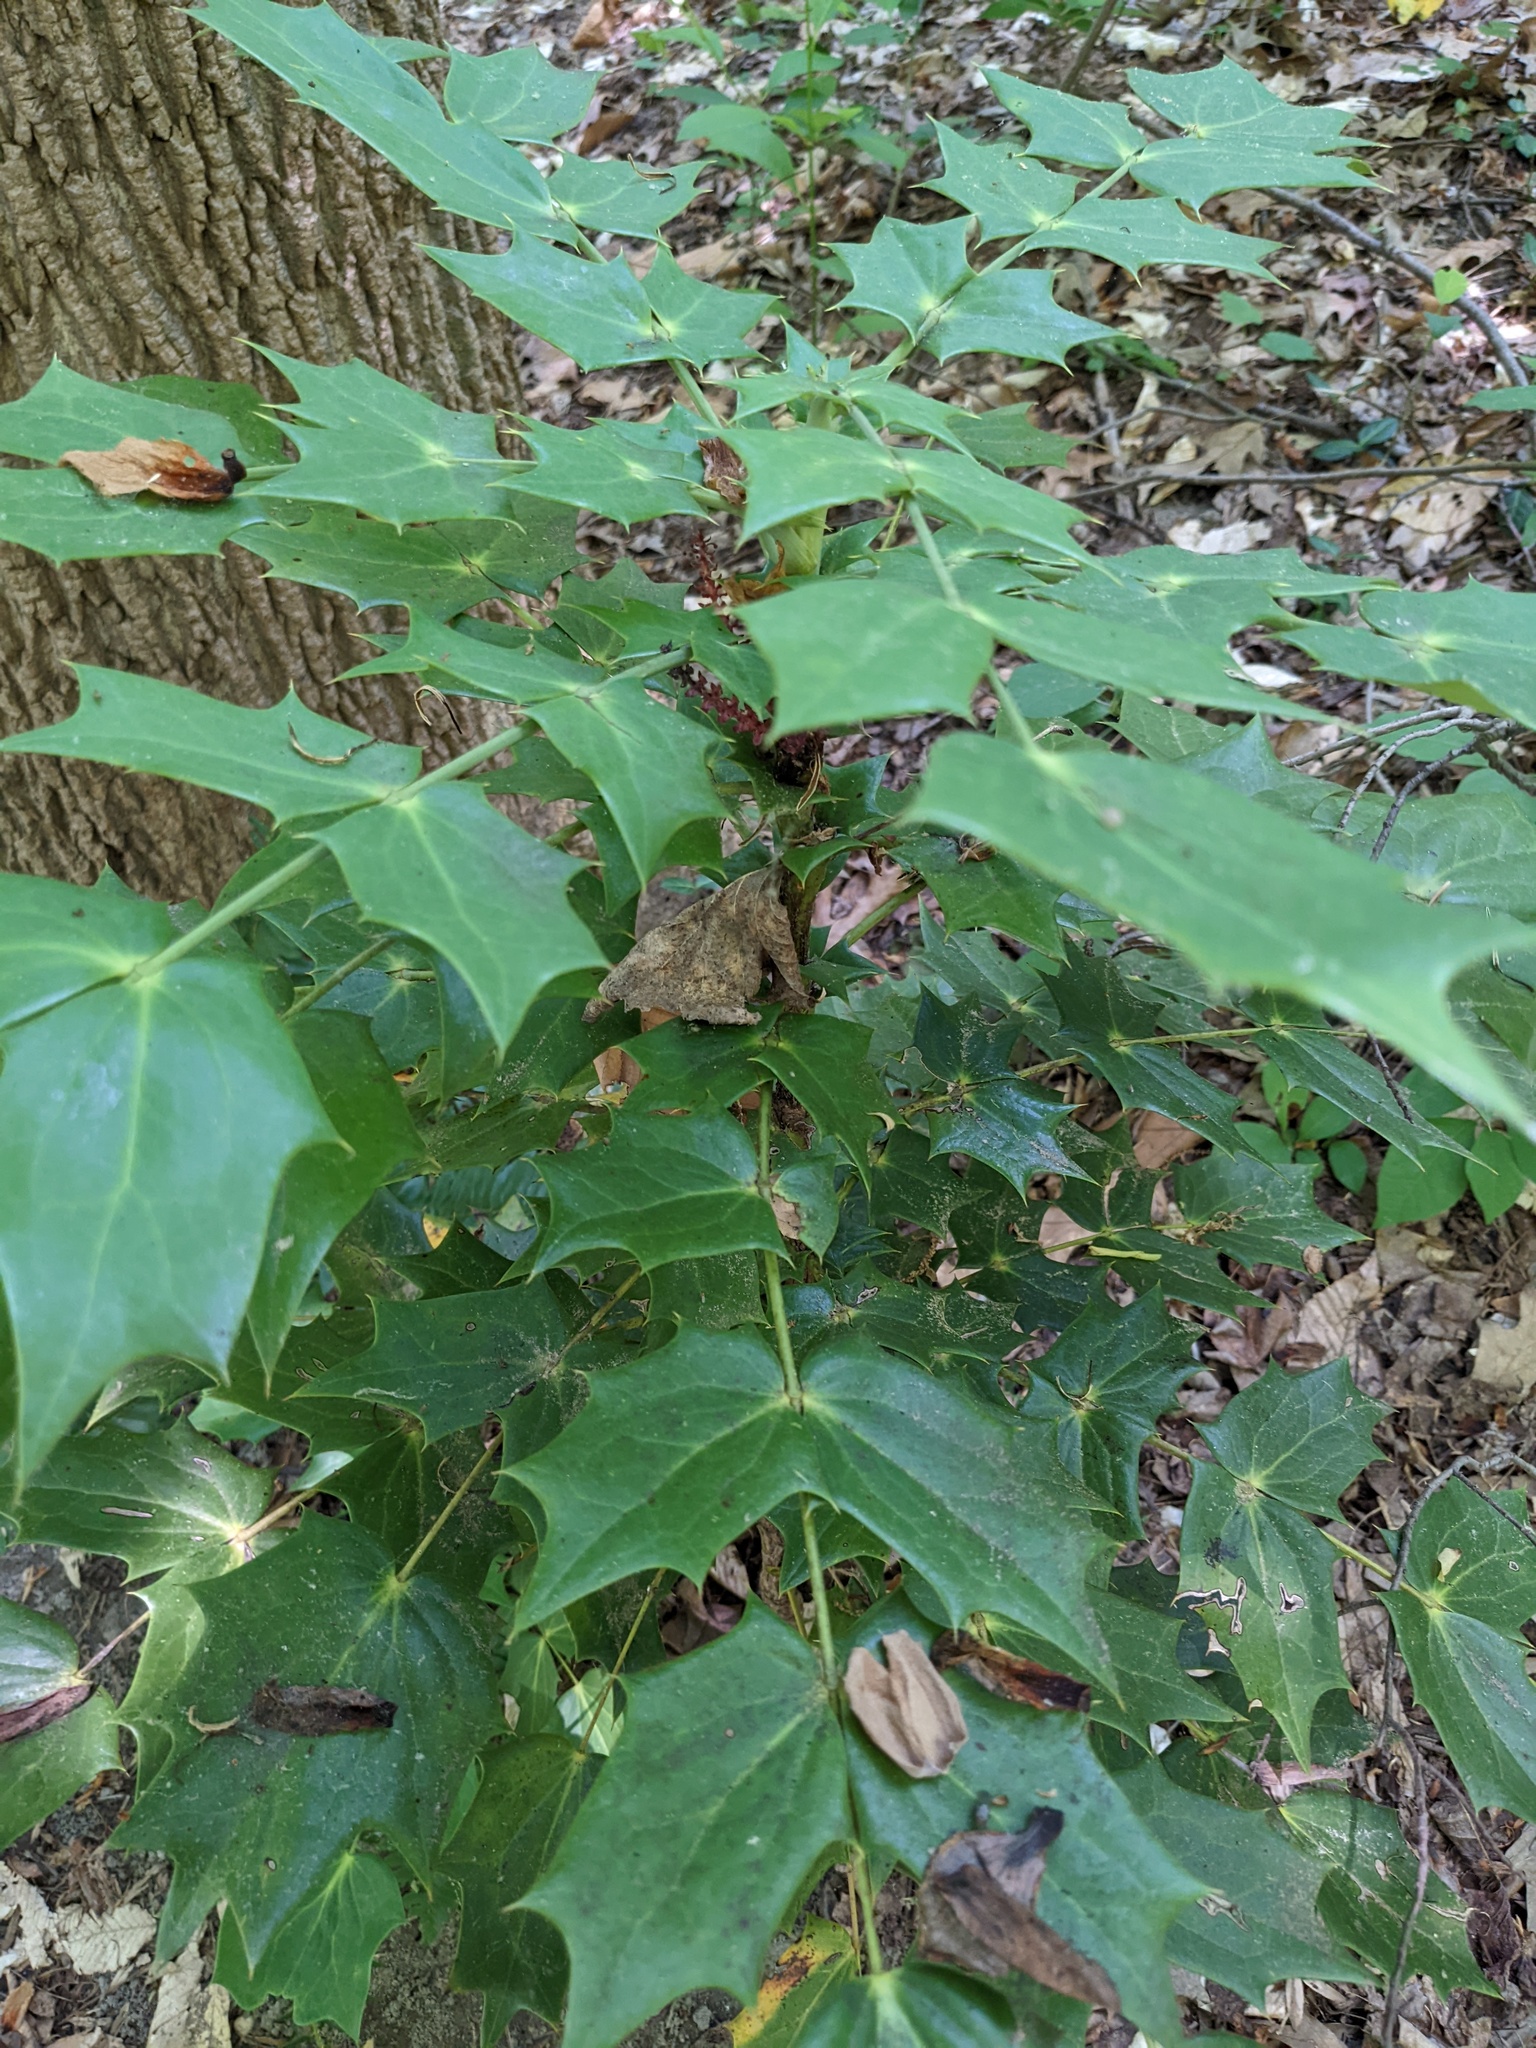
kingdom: Plantae
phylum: Tracheophyta
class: Magnoliopsida
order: Ranunculales
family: Berberidaceae
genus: Mahonia
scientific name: Mahonia bealei
